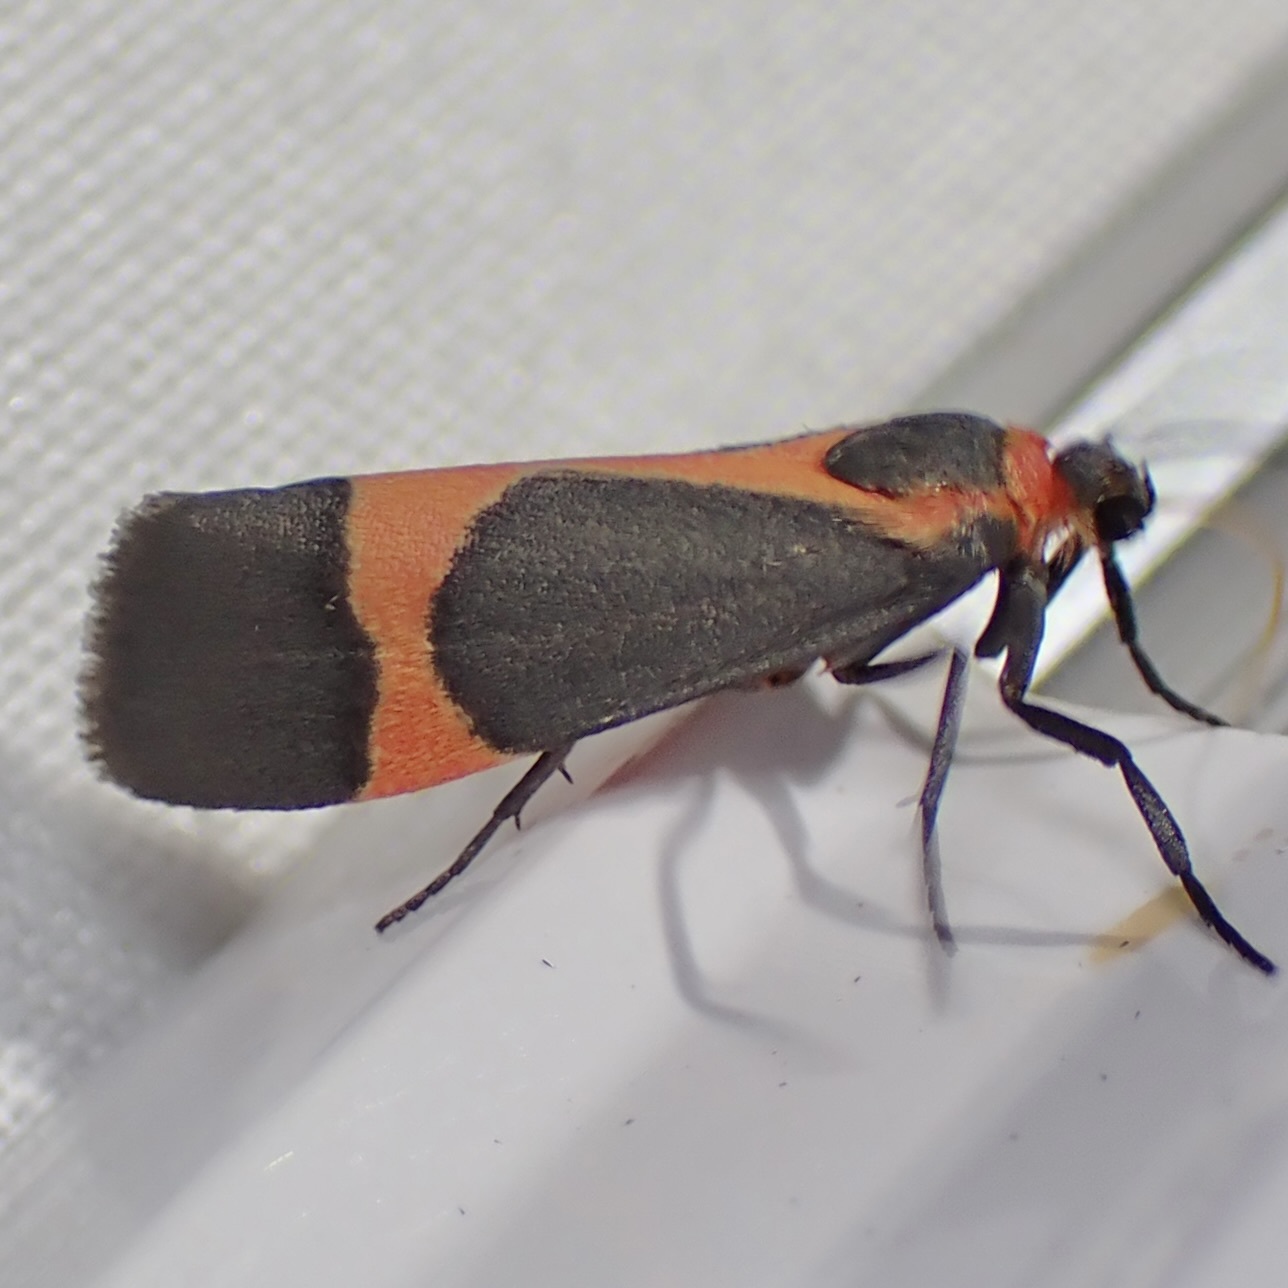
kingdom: Animalia
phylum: Arthropoda
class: Insecta
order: Lepidoptera
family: Erebidae
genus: Cisthene
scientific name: Cisthene martini
